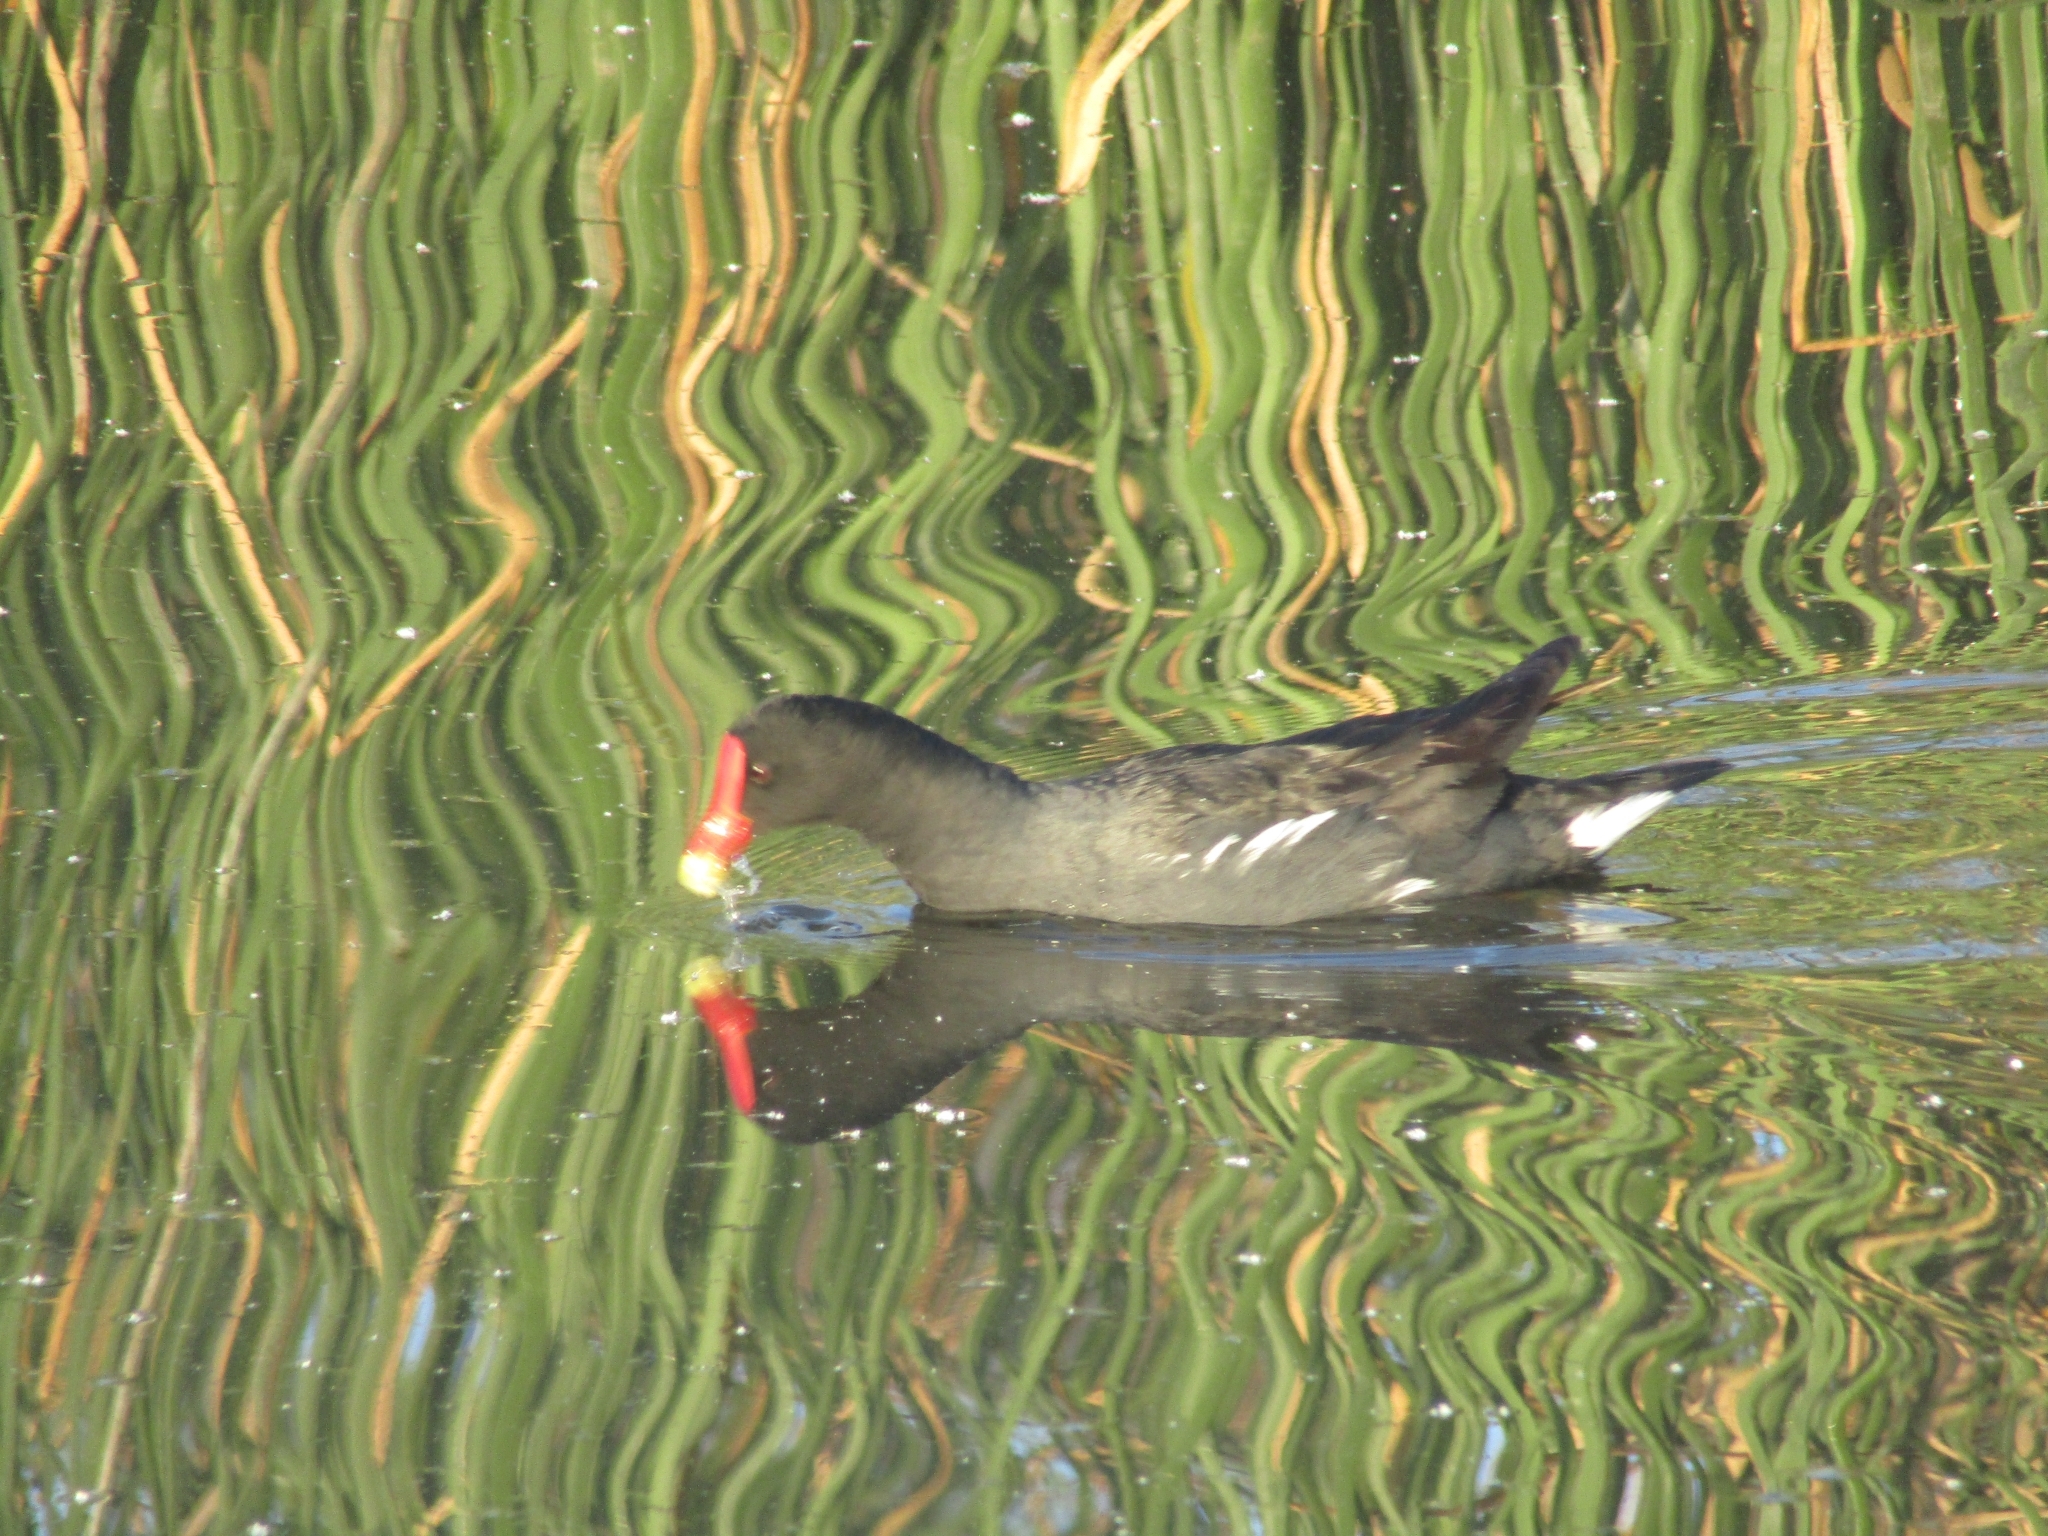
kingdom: Animalia
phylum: Chordata
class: Aves
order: Gruiformes
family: Rallidae
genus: Gallinula
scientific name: Gallinula chloropus
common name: Common moorhen
